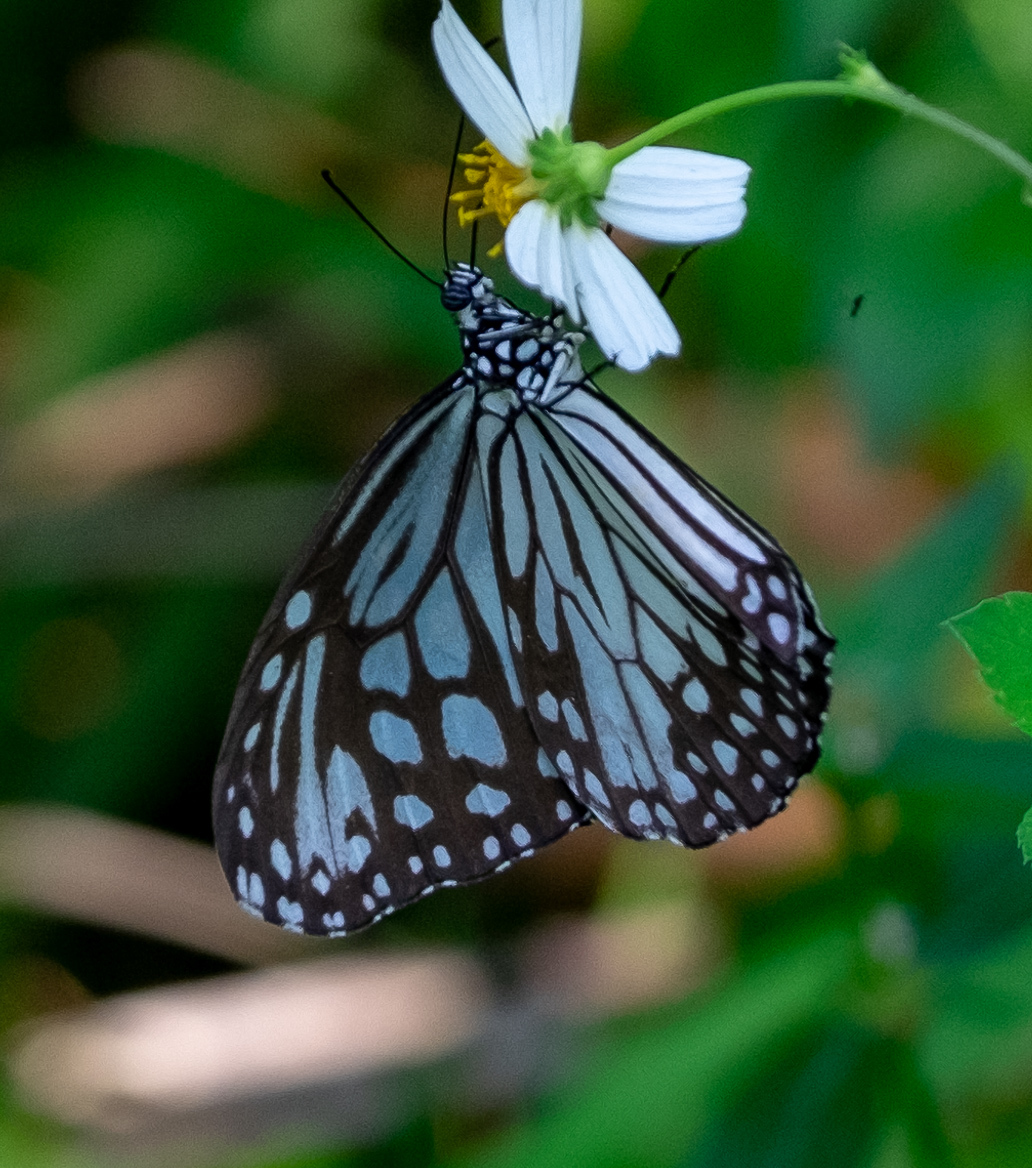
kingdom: Animalia
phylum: Arthropoda
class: Insecta
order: Lepidoptera
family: Nymphalidae
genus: Parantica
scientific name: Parantica aglea
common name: Glassy tiger
